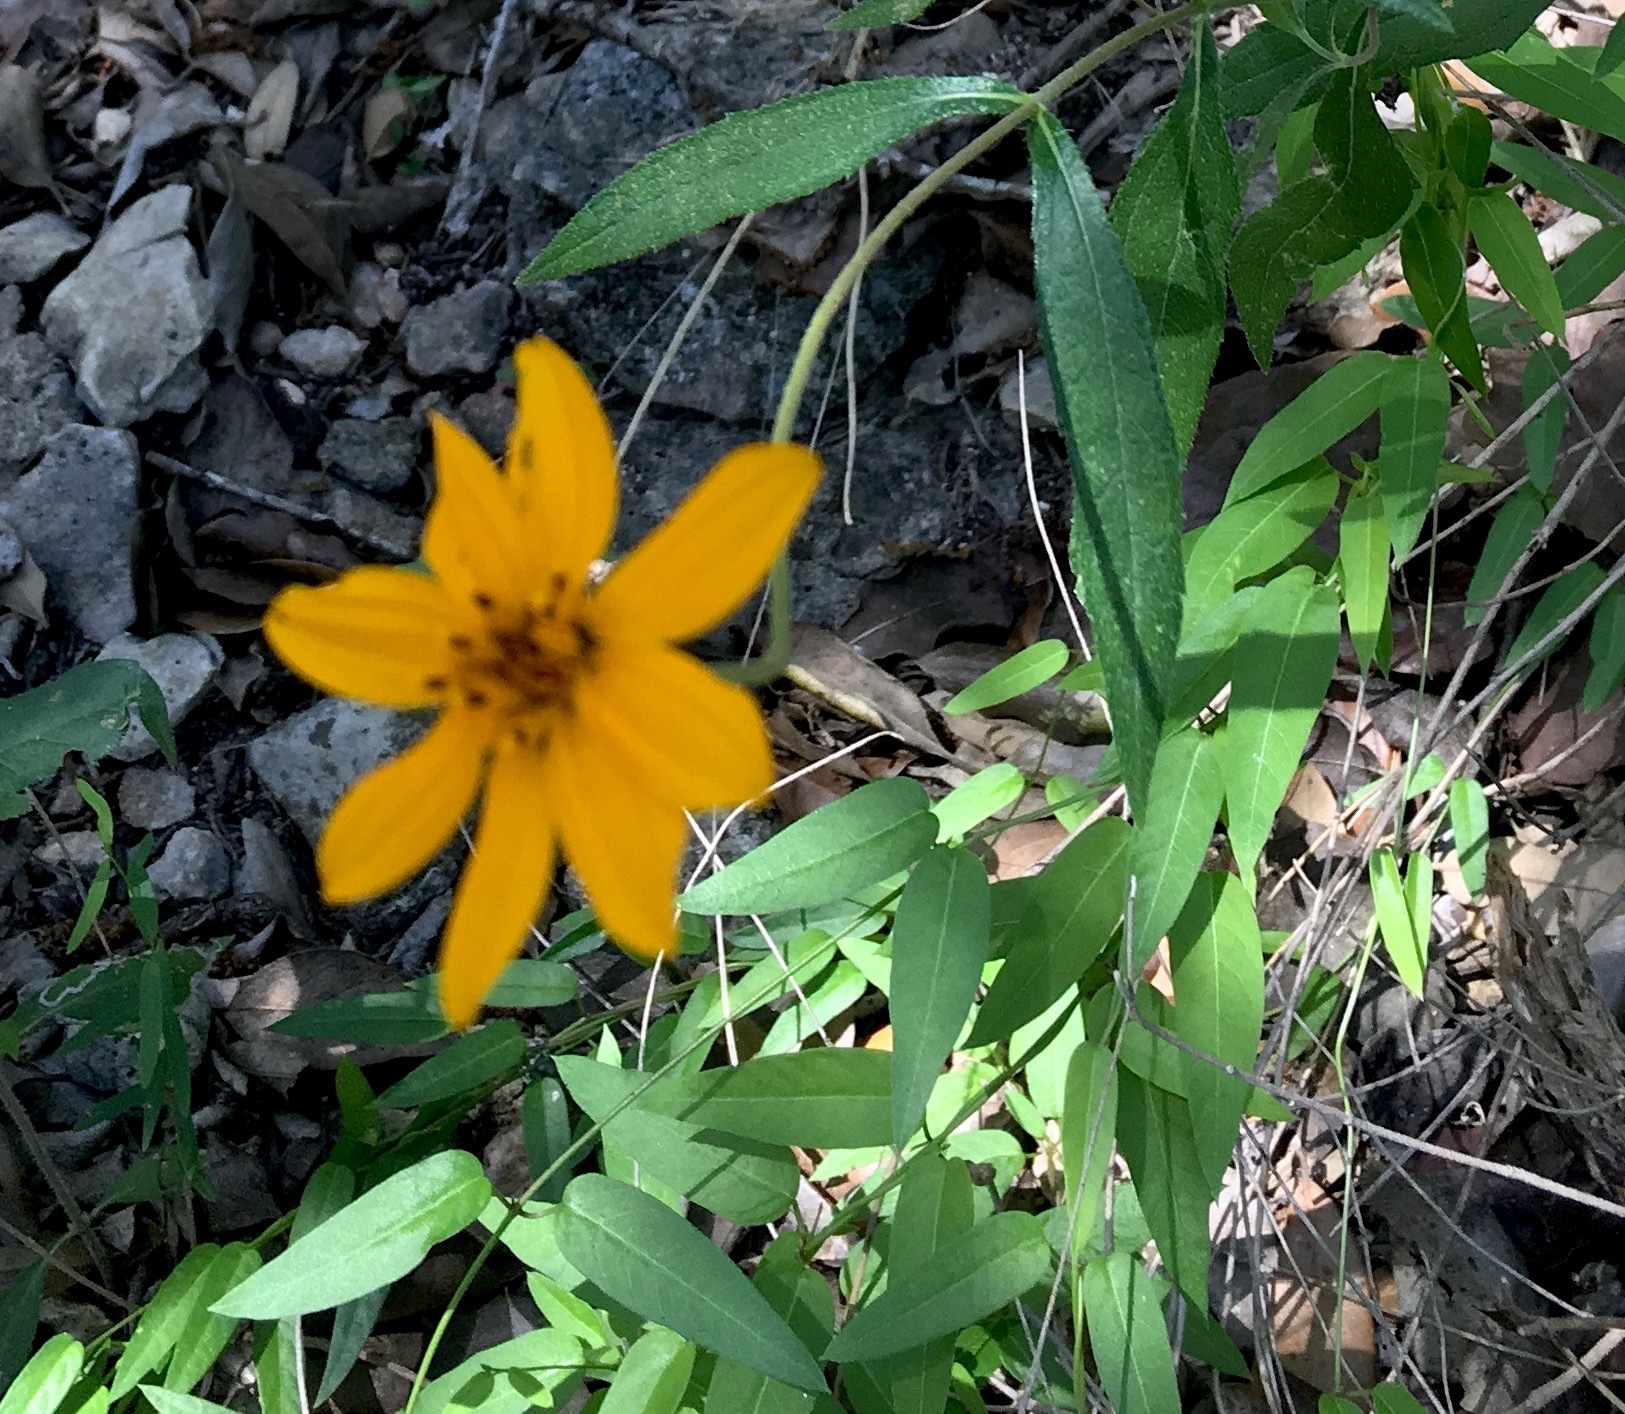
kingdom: Plantae
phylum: Tracheophyta
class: Magnoliopsida
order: Asterales
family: Asteraceae
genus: Wedelia
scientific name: Wedelia acapulcensis
